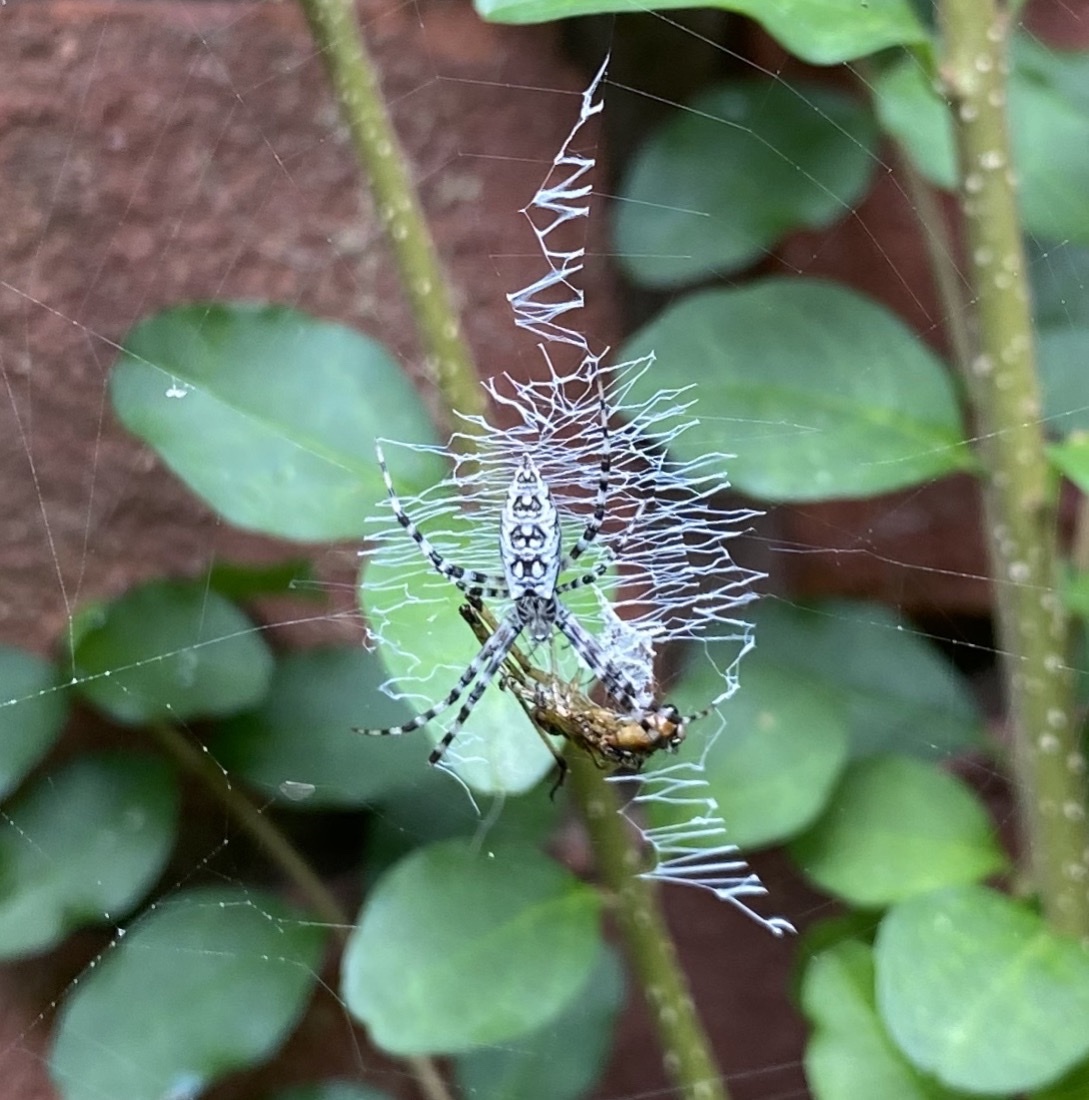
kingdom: Animalia
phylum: Arthropoda
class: Arachnida
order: Araneae
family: Araneidae
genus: Argiope
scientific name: Argiope aurantia
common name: Orb weavers
